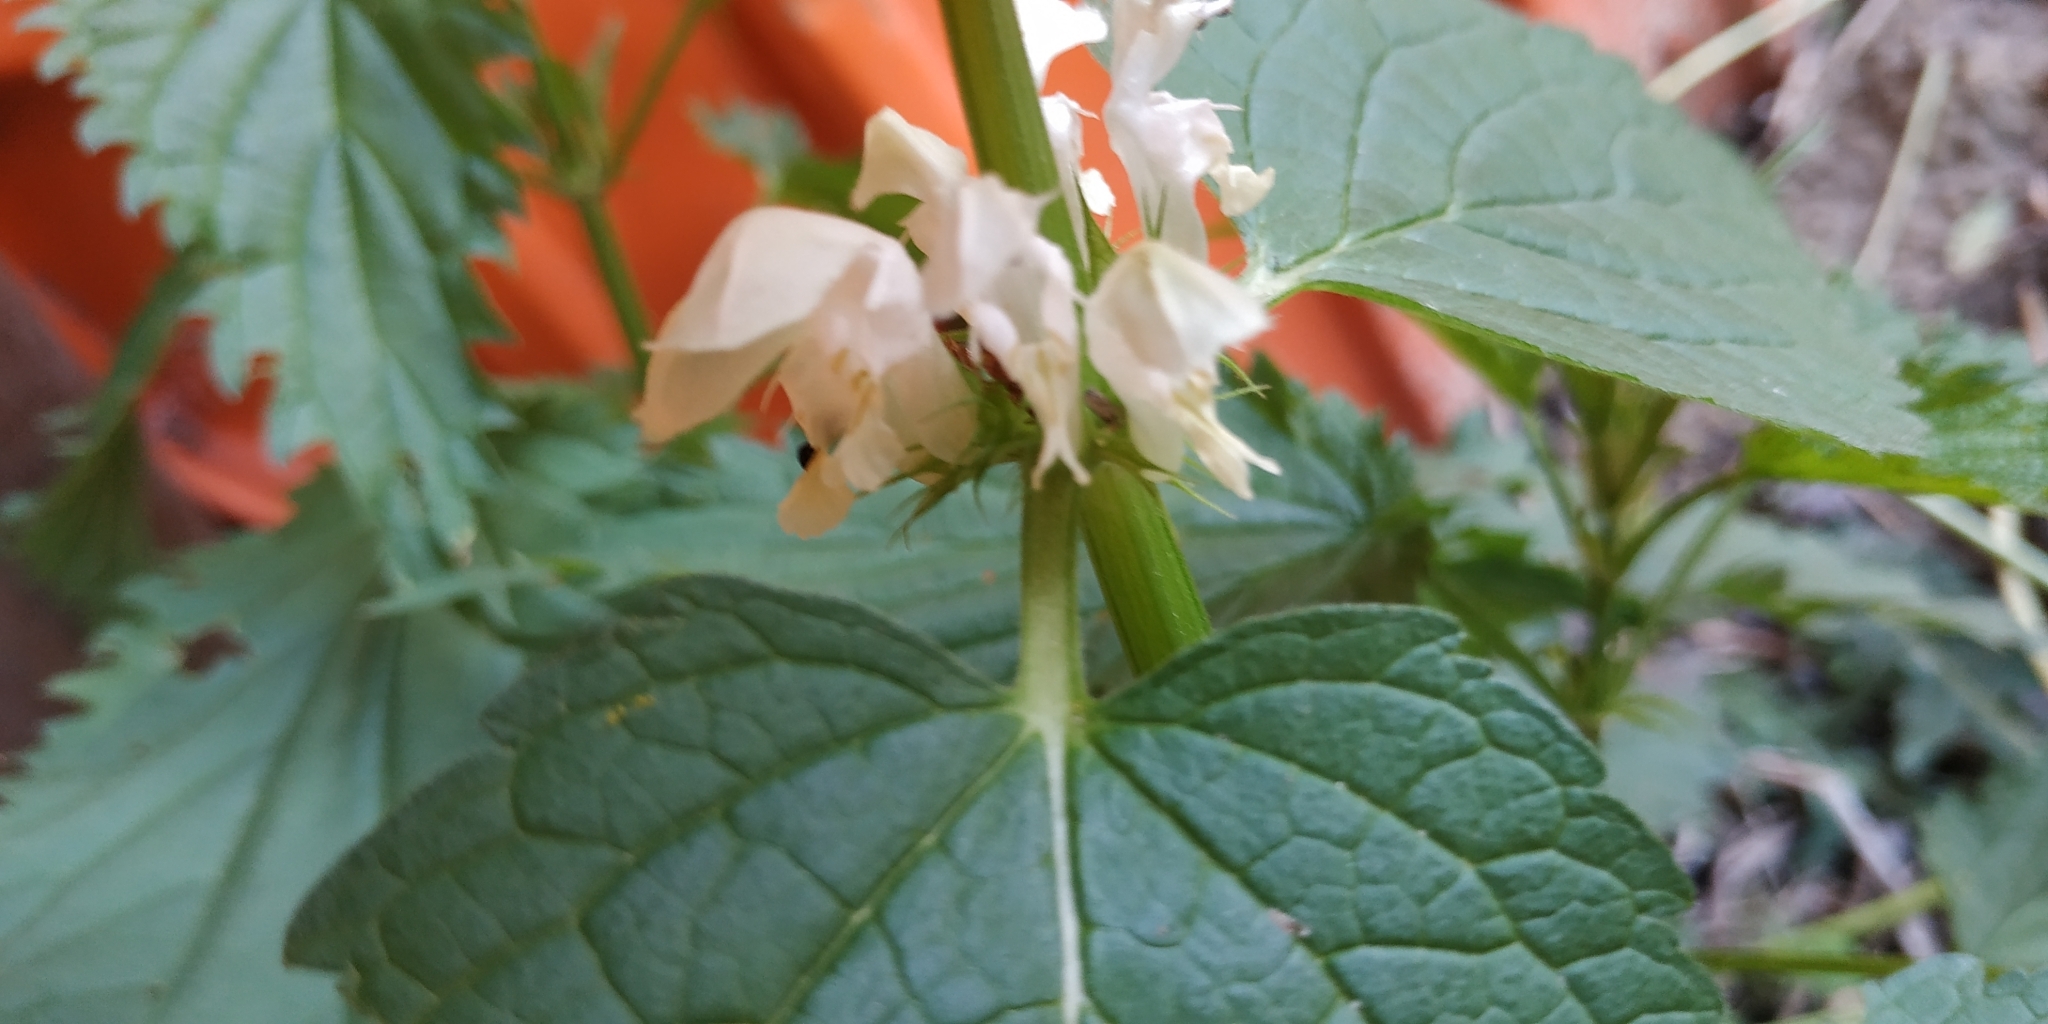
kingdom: Plantae
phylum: Tracheophyta
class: Magnoliopsida
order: Lamiales
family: Lamiaceae
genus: Lamium
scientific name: Lamium album
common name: White dead-nettle
